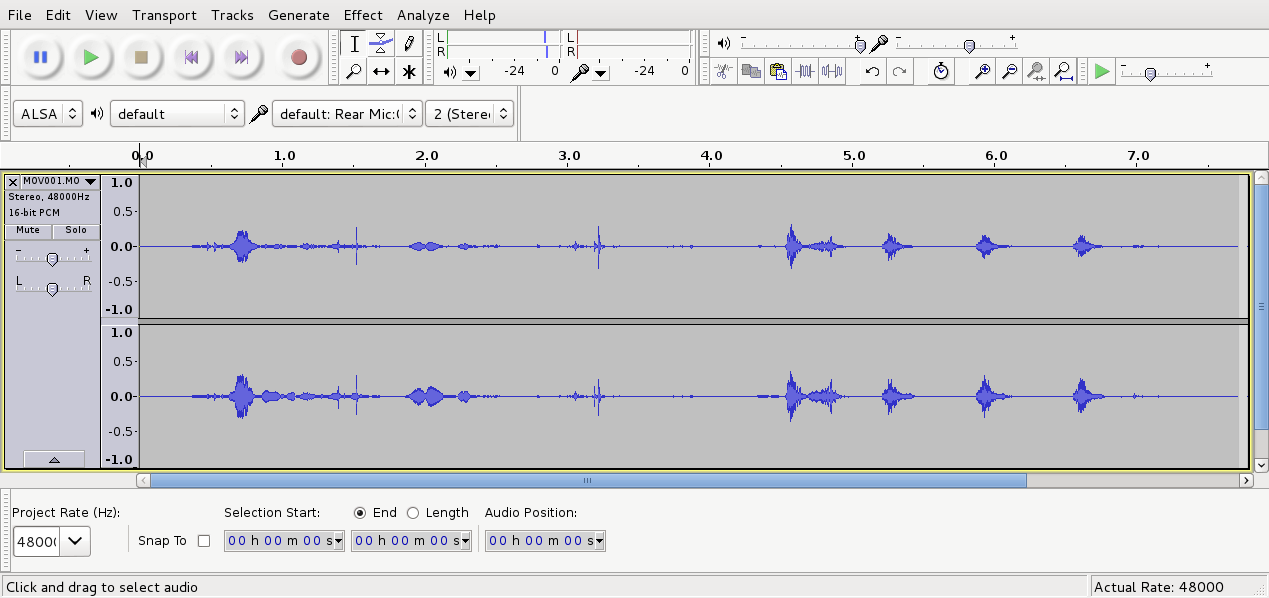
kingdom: Animalia
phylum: Chordata
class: Aves
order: Passeriformes
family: Meliphagidae
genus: Prosthemadera
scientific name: Prosthemadera novaeseelandiae
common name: Tui
